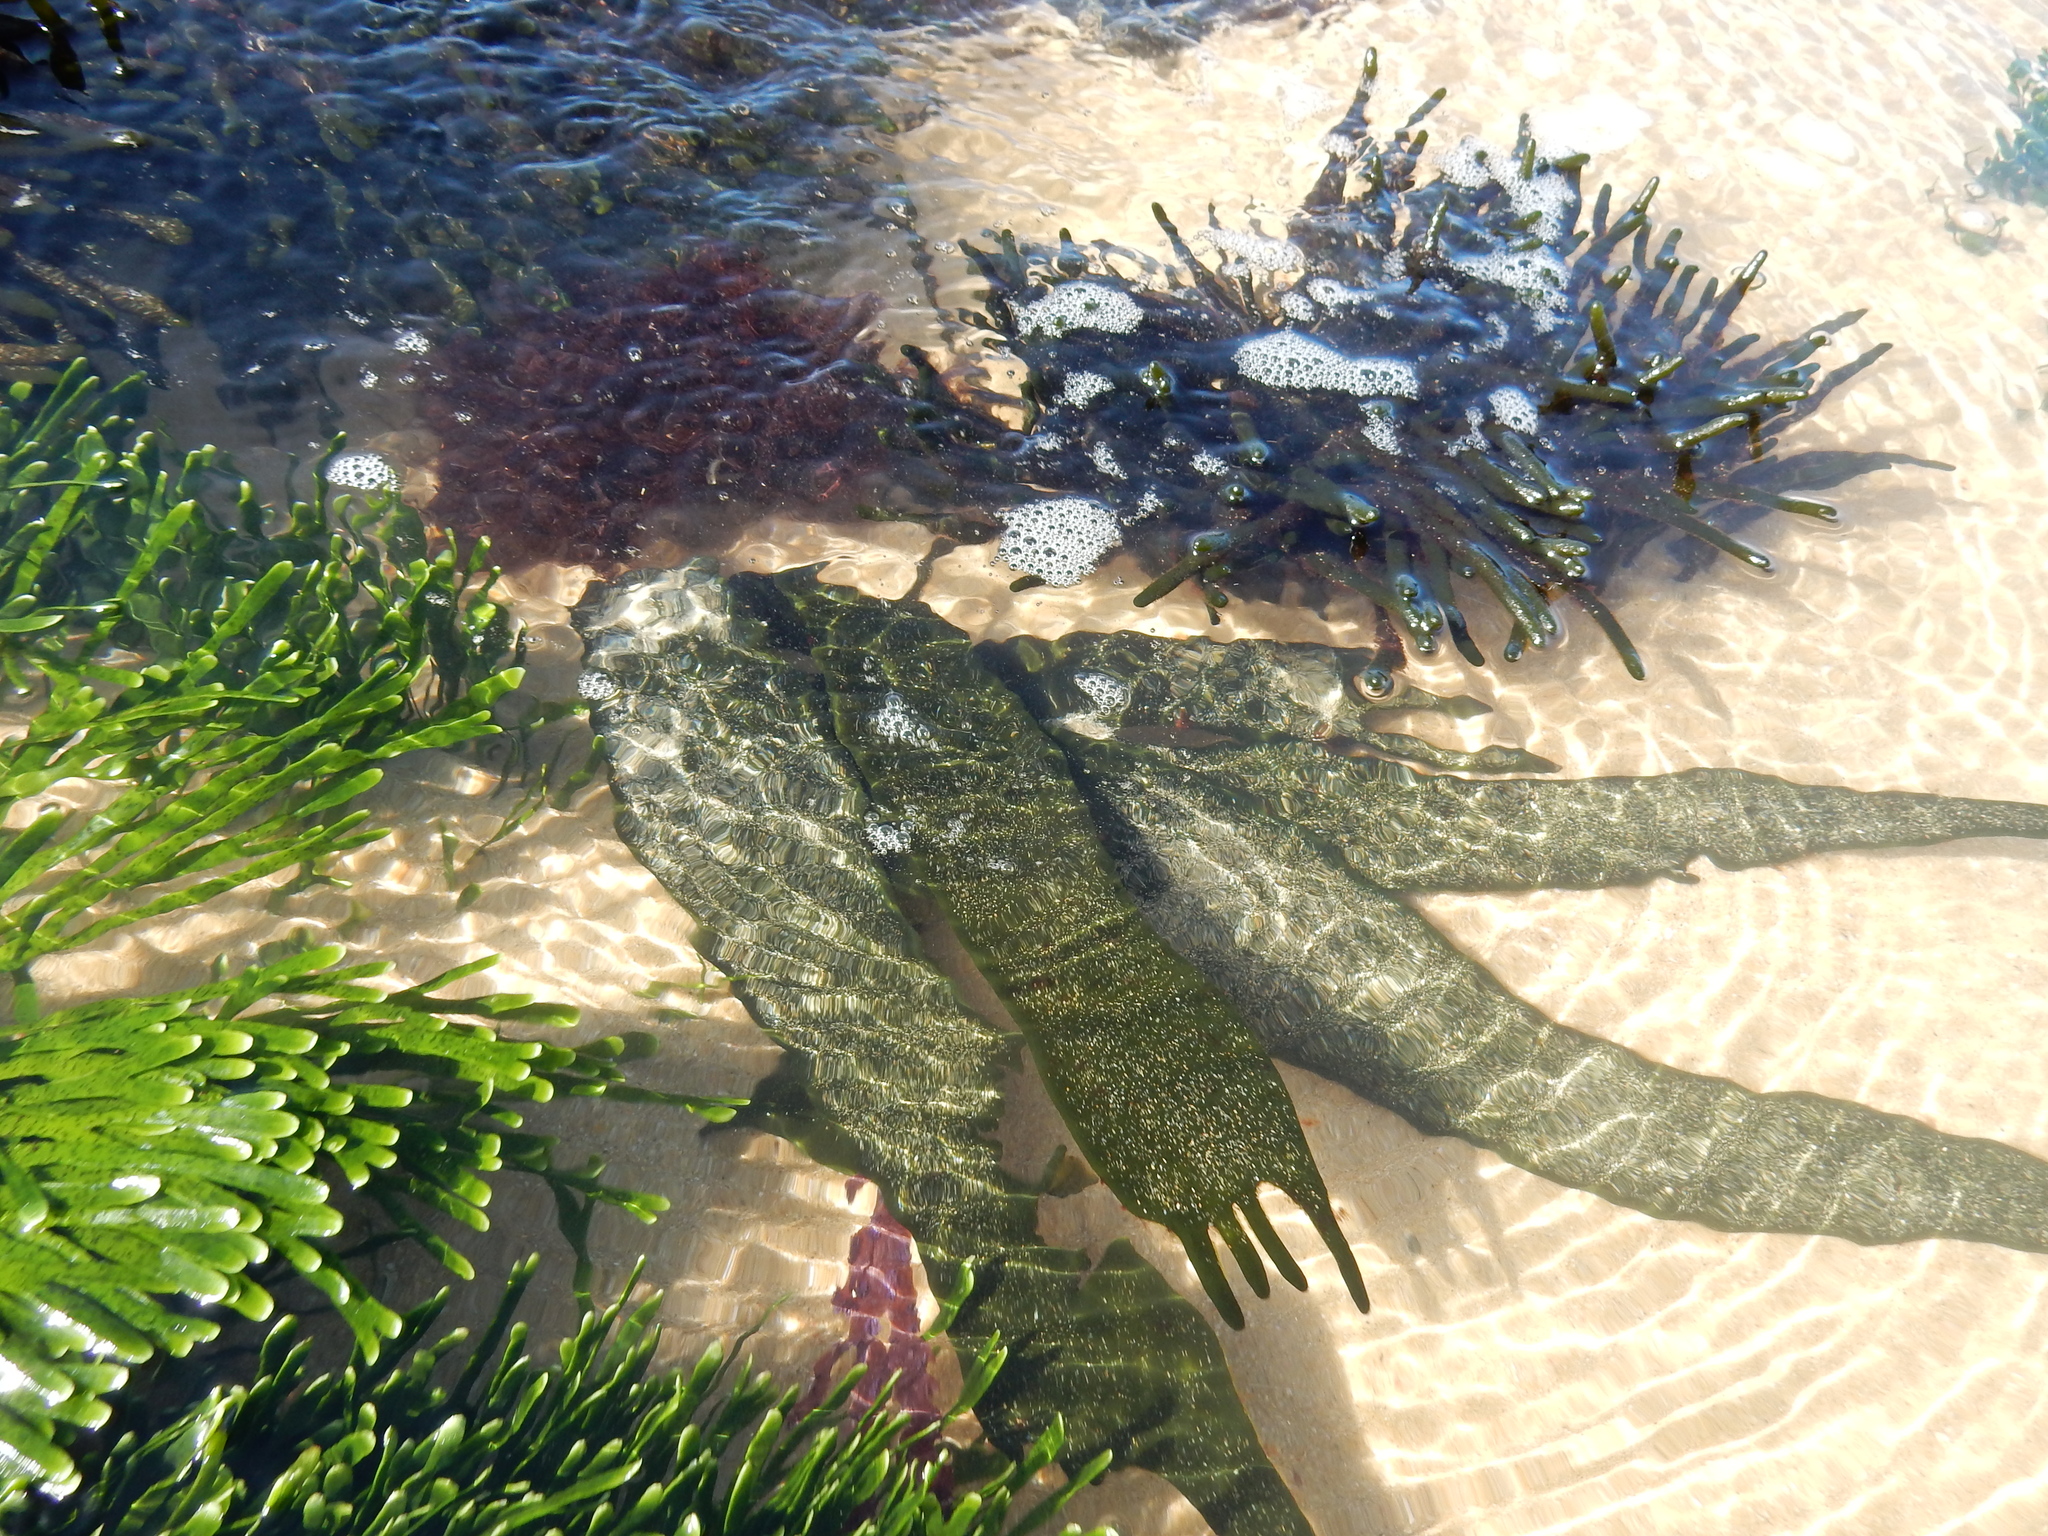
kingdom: Plantae
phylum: Chlorophyta
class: Ulvophyceae
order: Bryopsidales
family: Codiaceae
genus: Codium
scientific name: Codium
